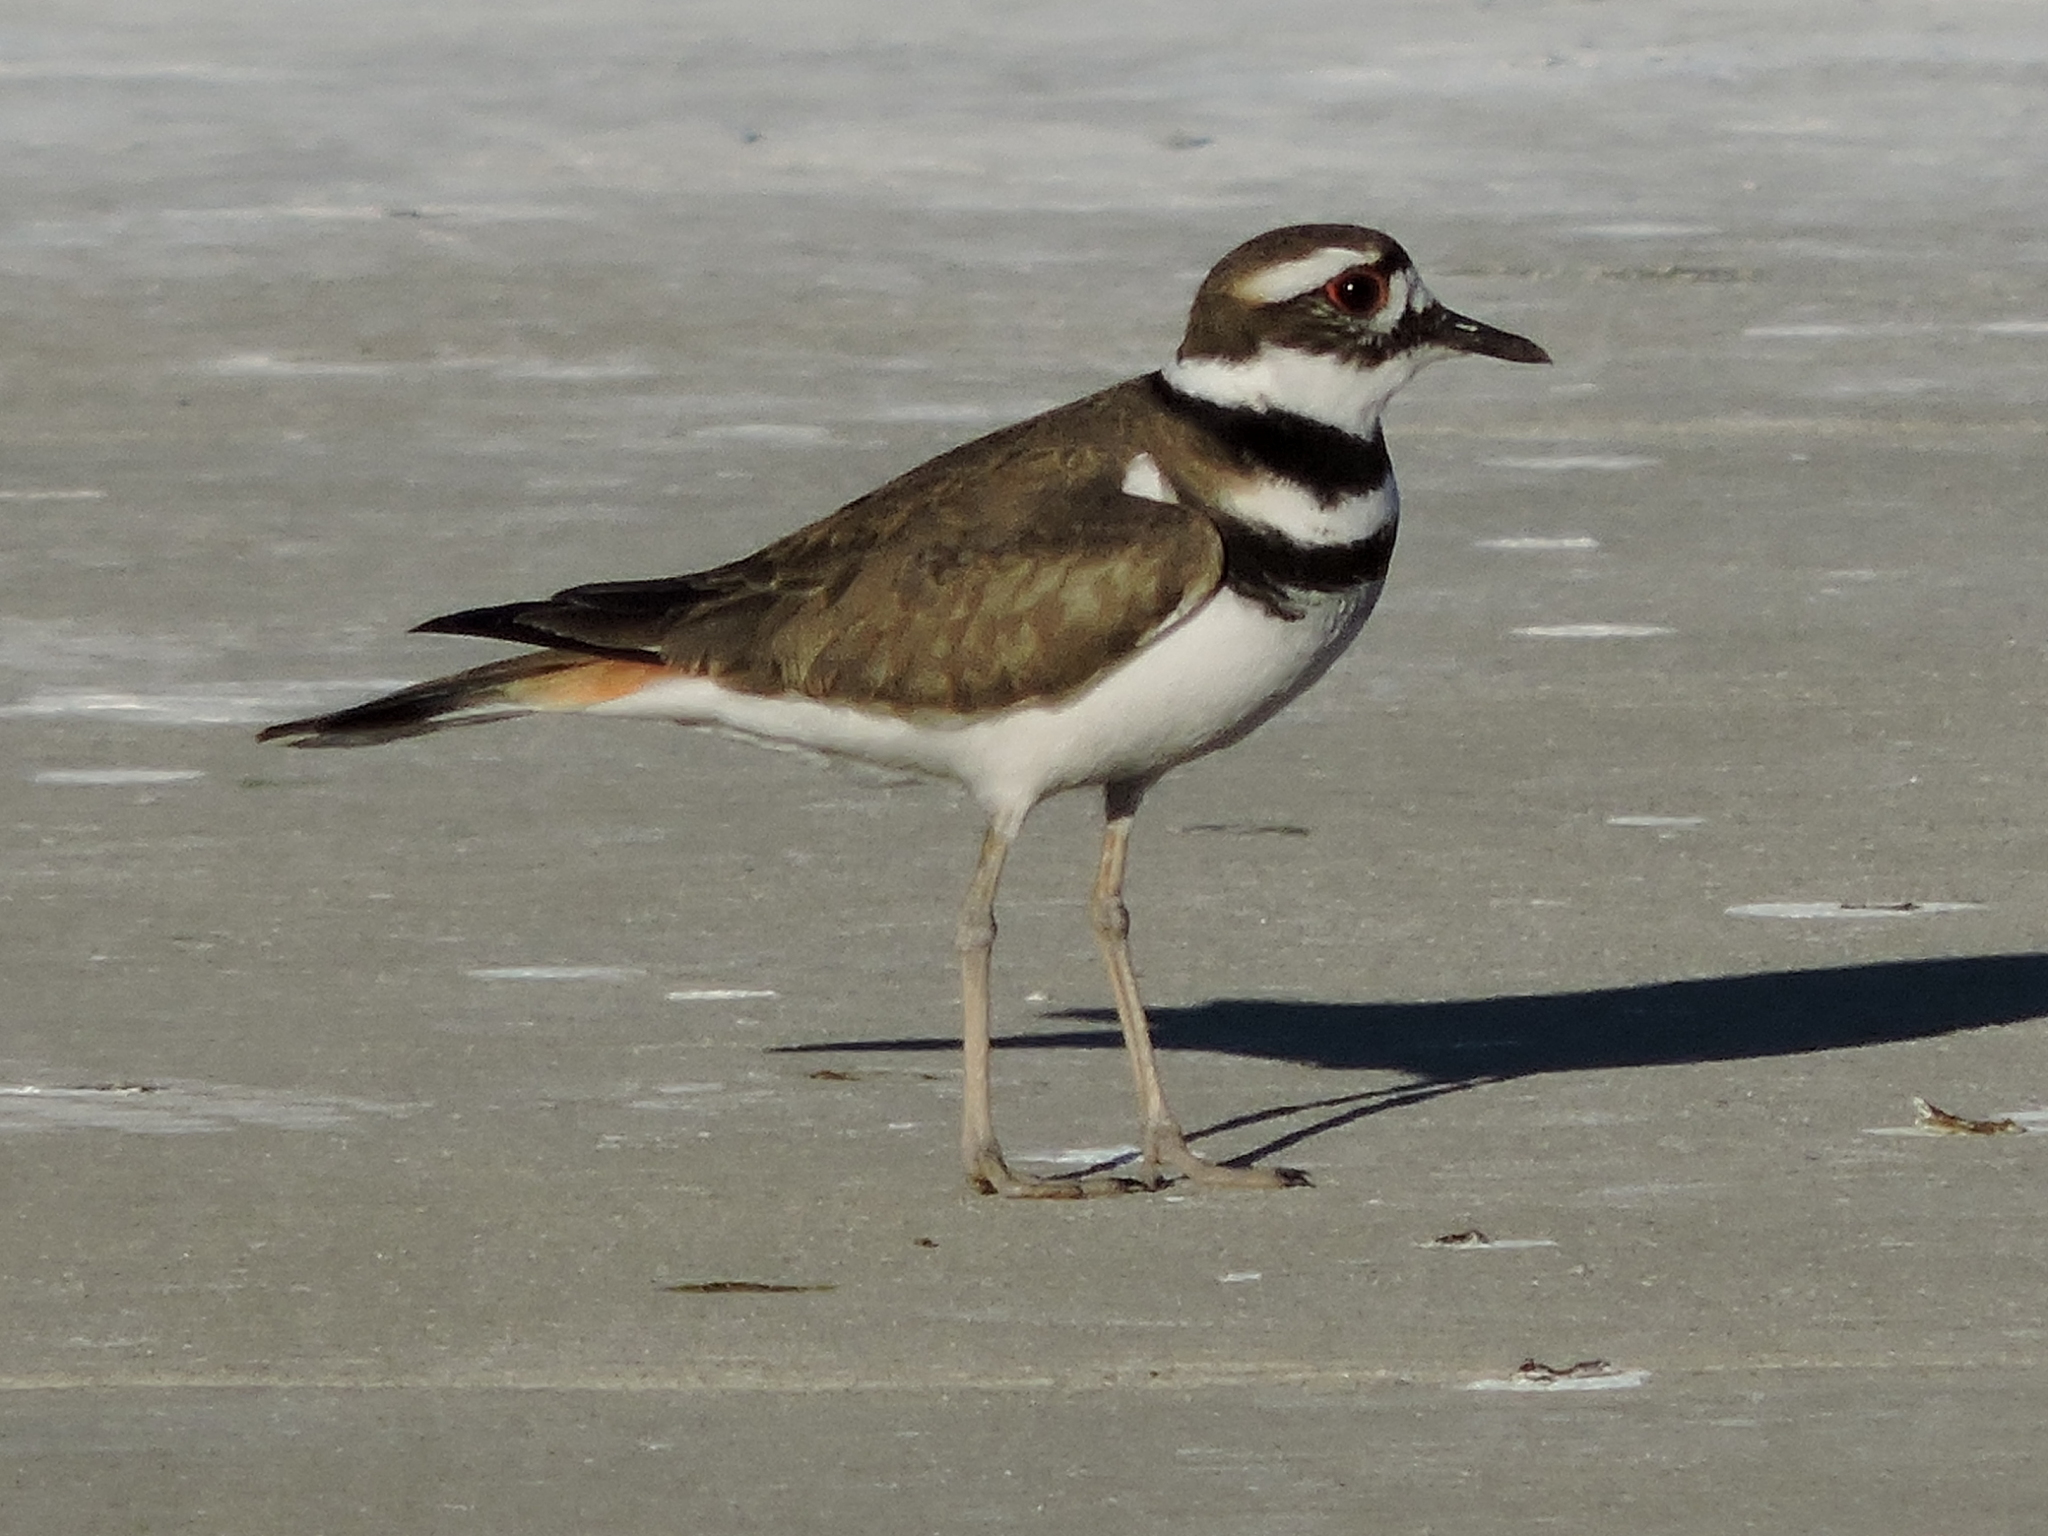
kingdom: Animalia
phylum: Chordata
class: Aves
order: Charadriiformes
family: Charadriidae
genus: Charadrius
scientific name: Charadrius vociferus
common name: Killdeer
